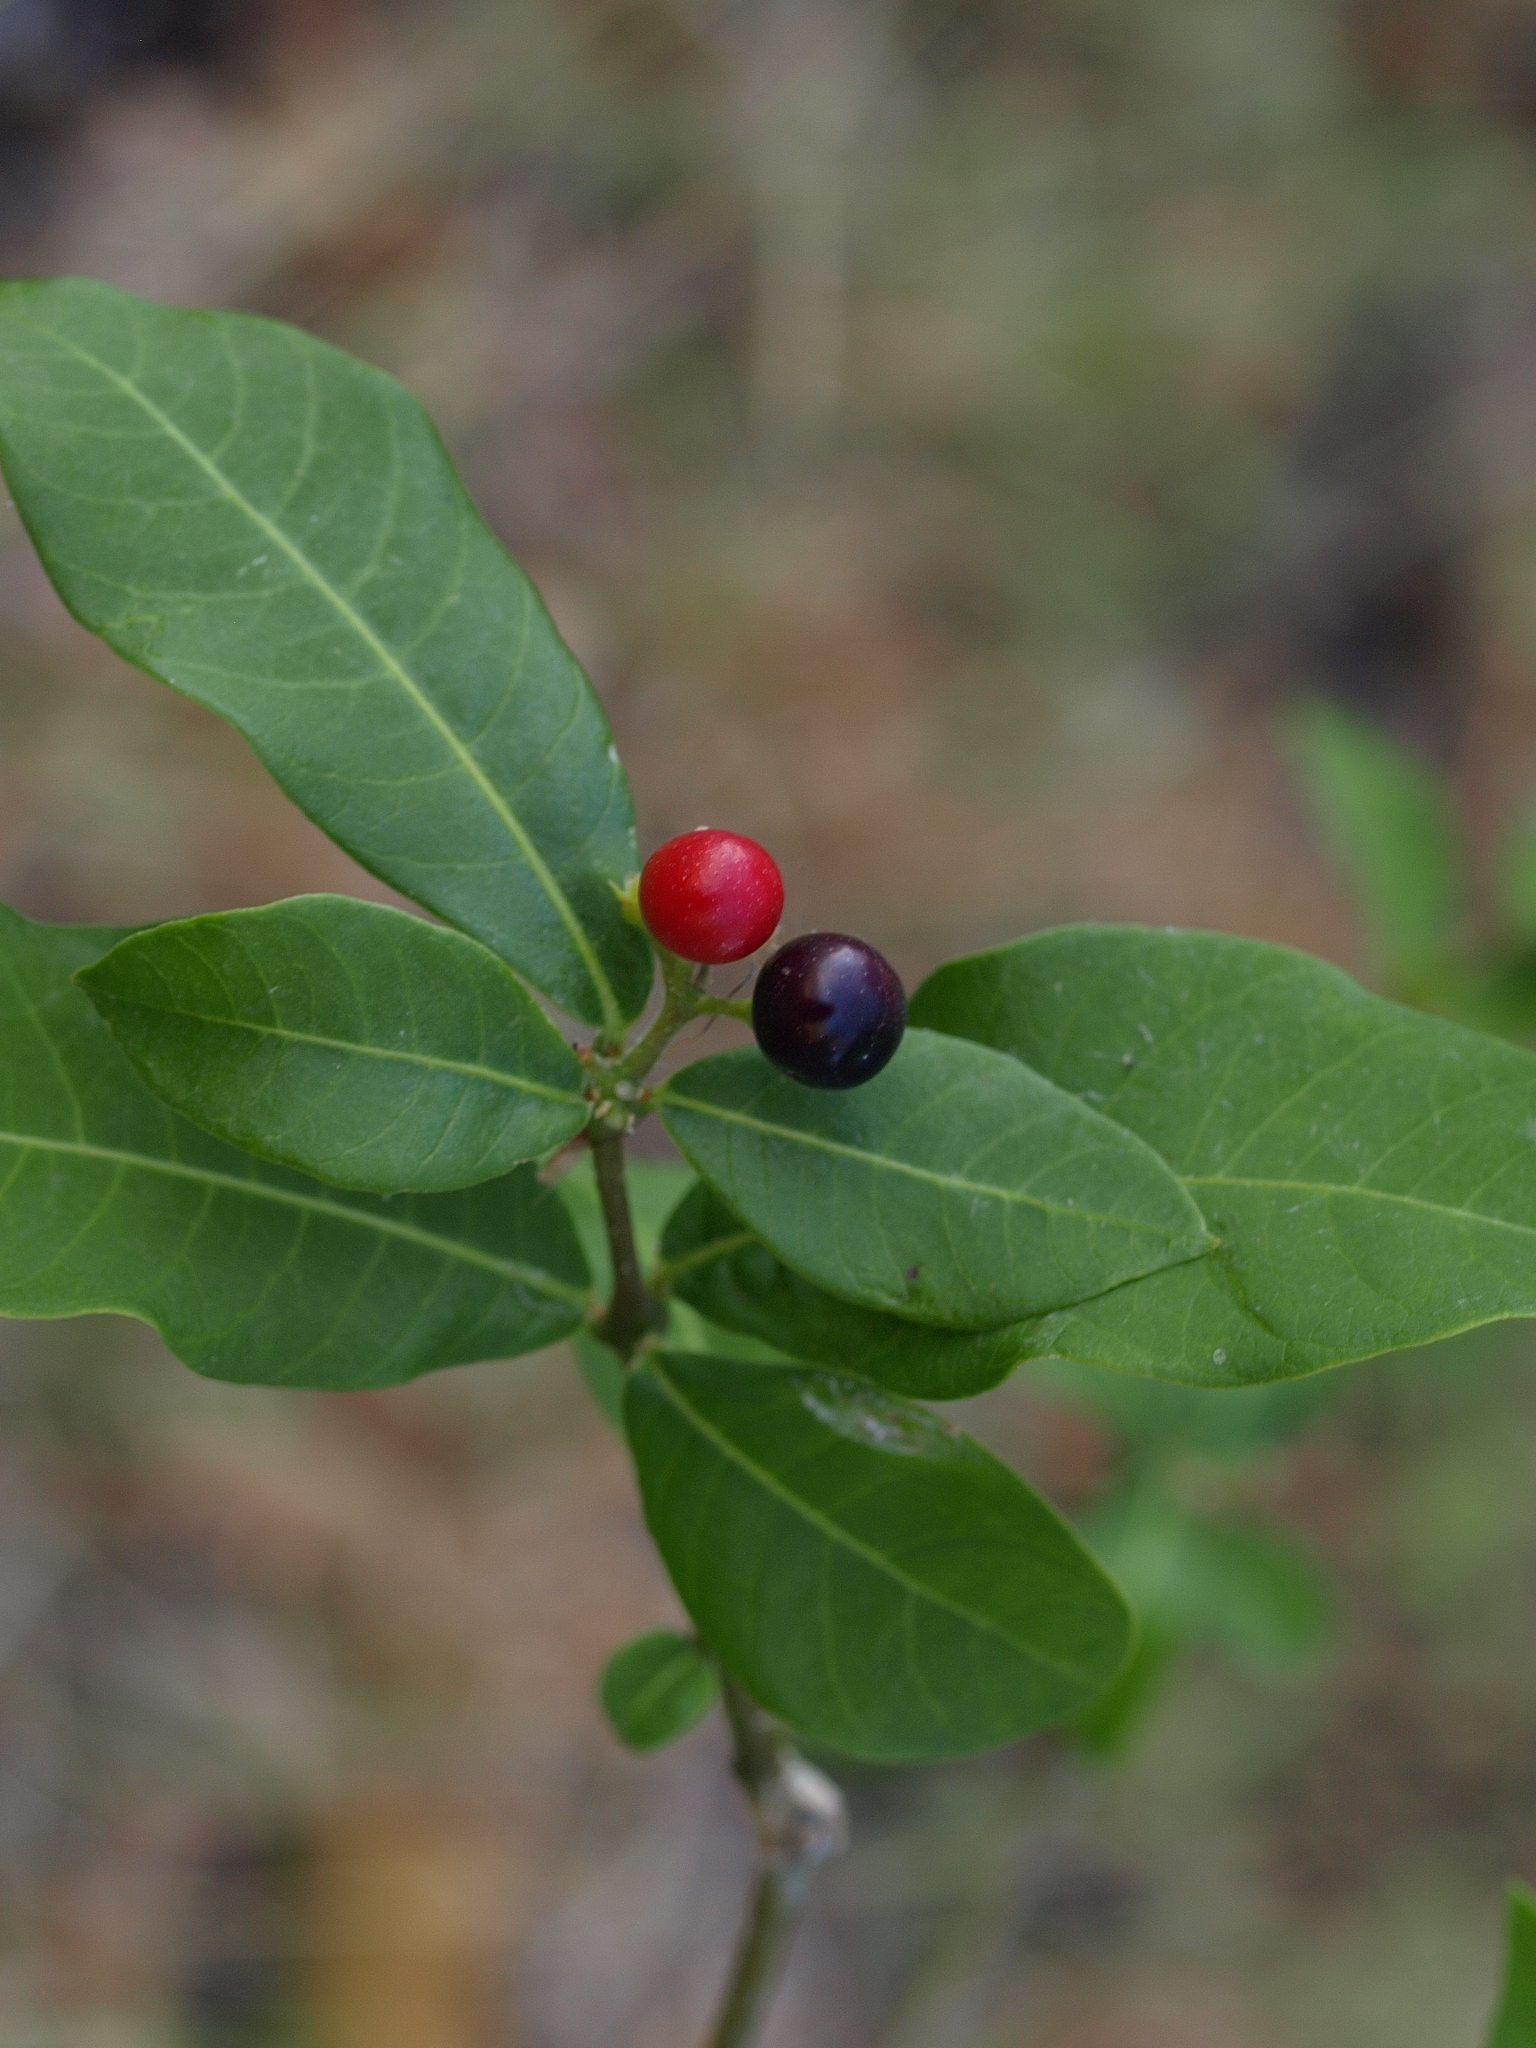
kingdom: Plantae
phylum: Tracheophyta
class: Magnoliopsida
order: Gentianales
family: Apocynaceae
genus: Rauvolfia
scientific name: Rauvolfia tetraphylla
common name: Four-leaf devil-pepper
